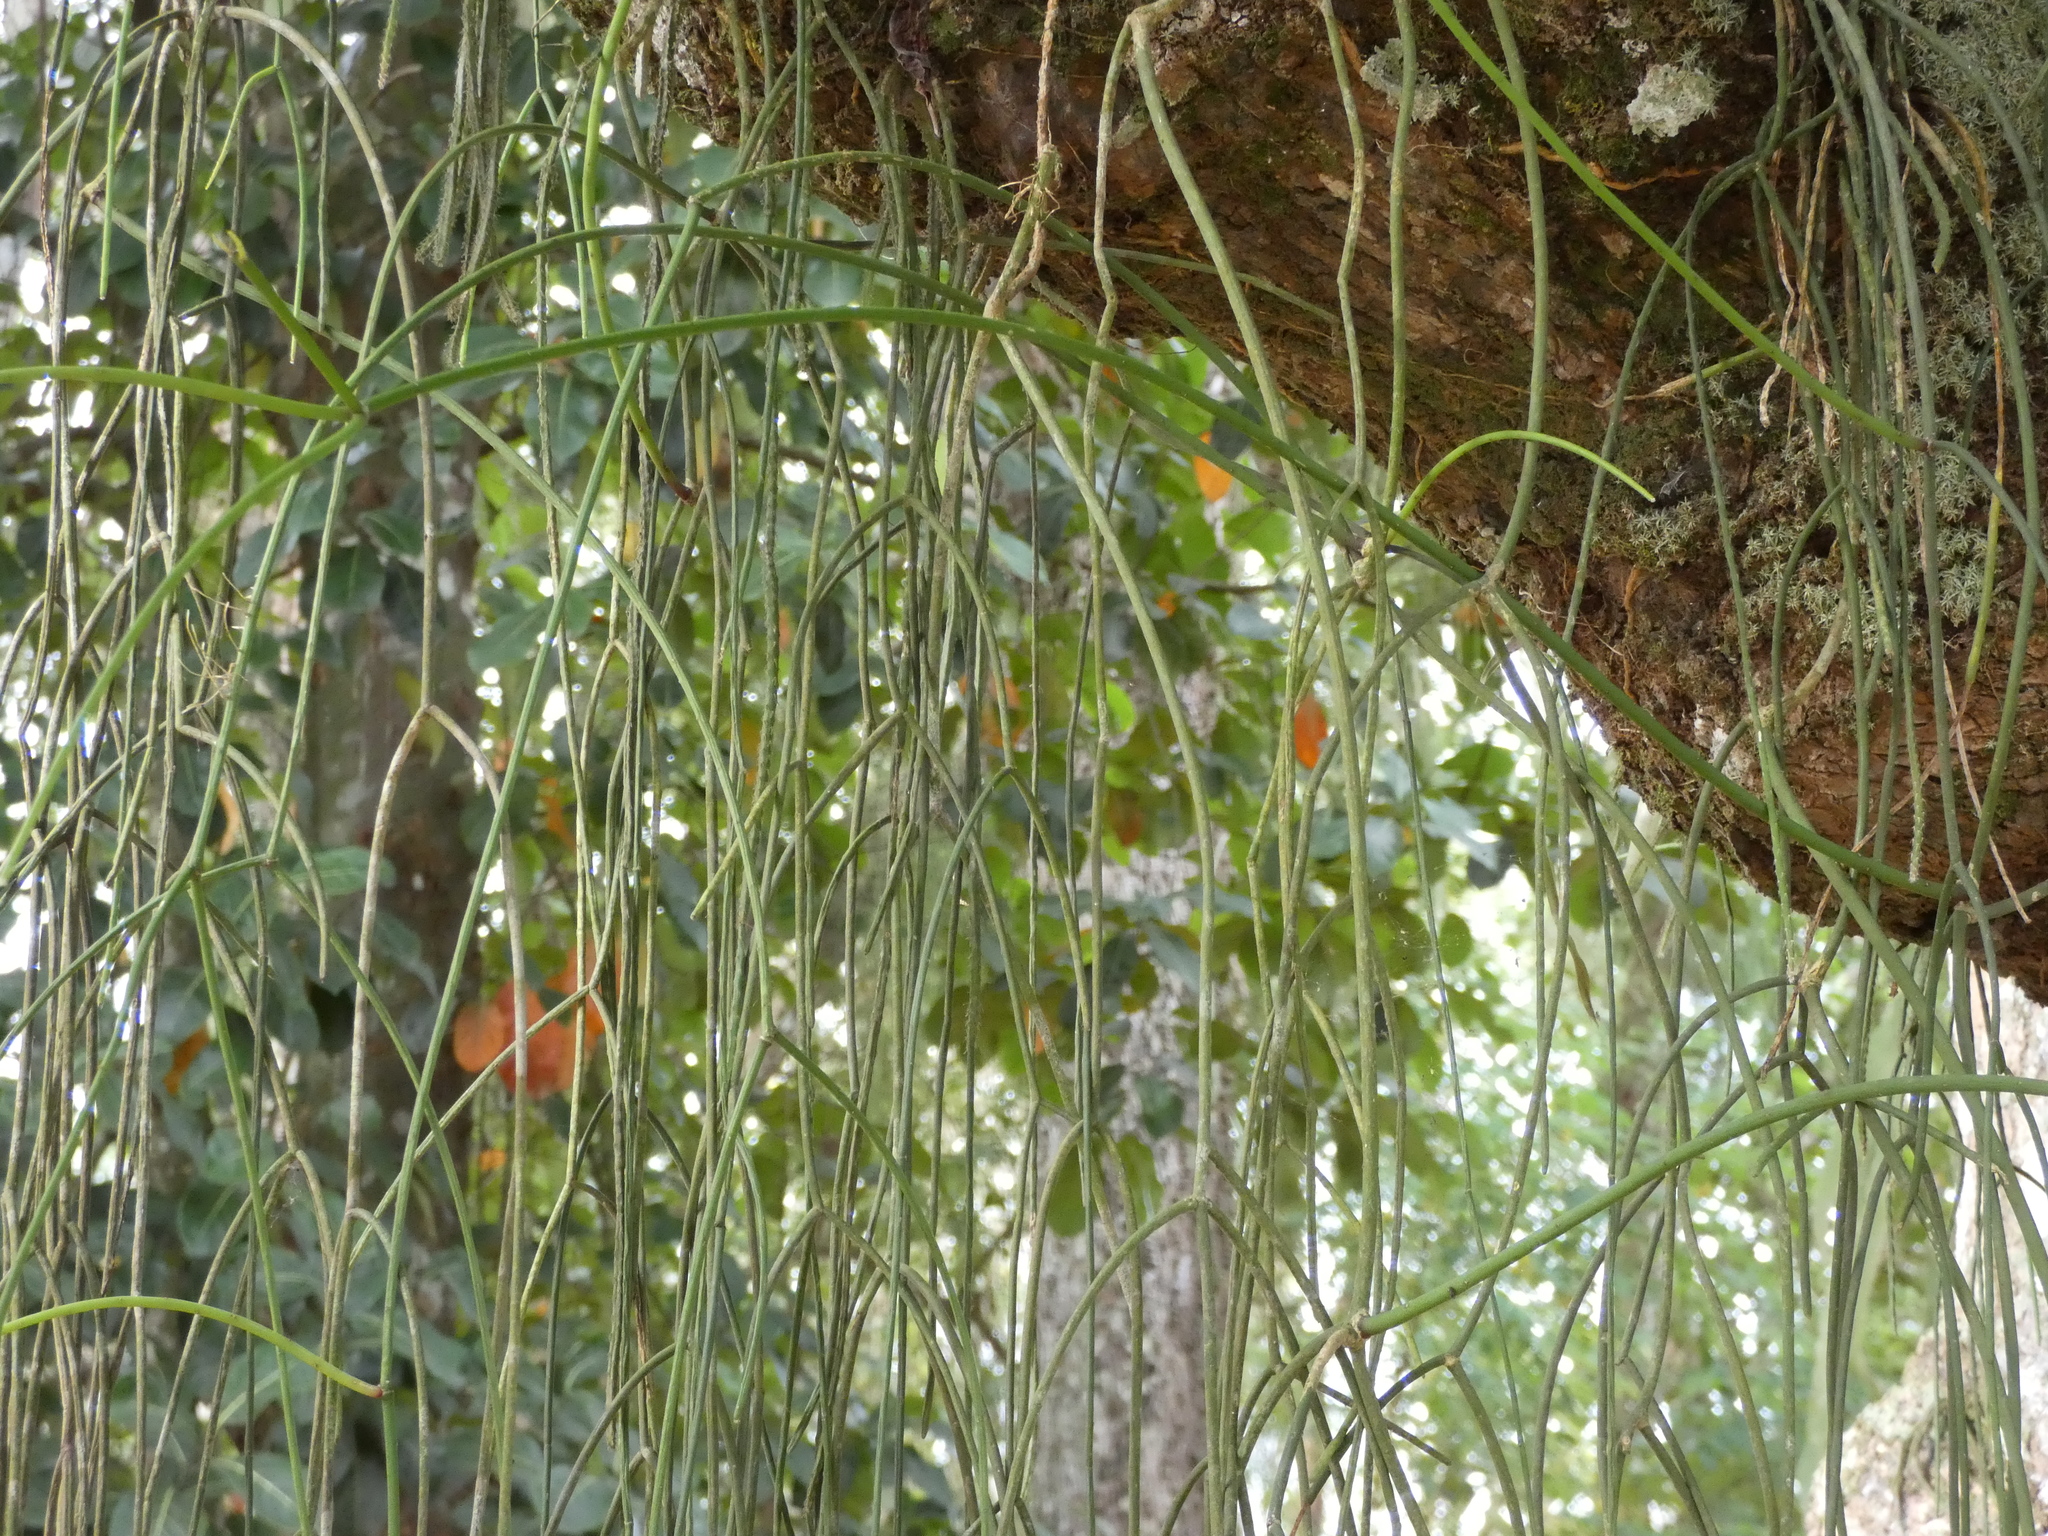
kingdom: Plantae
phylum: Tracheophyta
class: Magnoliopsida
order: Caryophyllales
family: Cactaceae
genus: Rhipsalis
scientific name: Rhipsalis baccifera
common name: Mistletoe cactus
